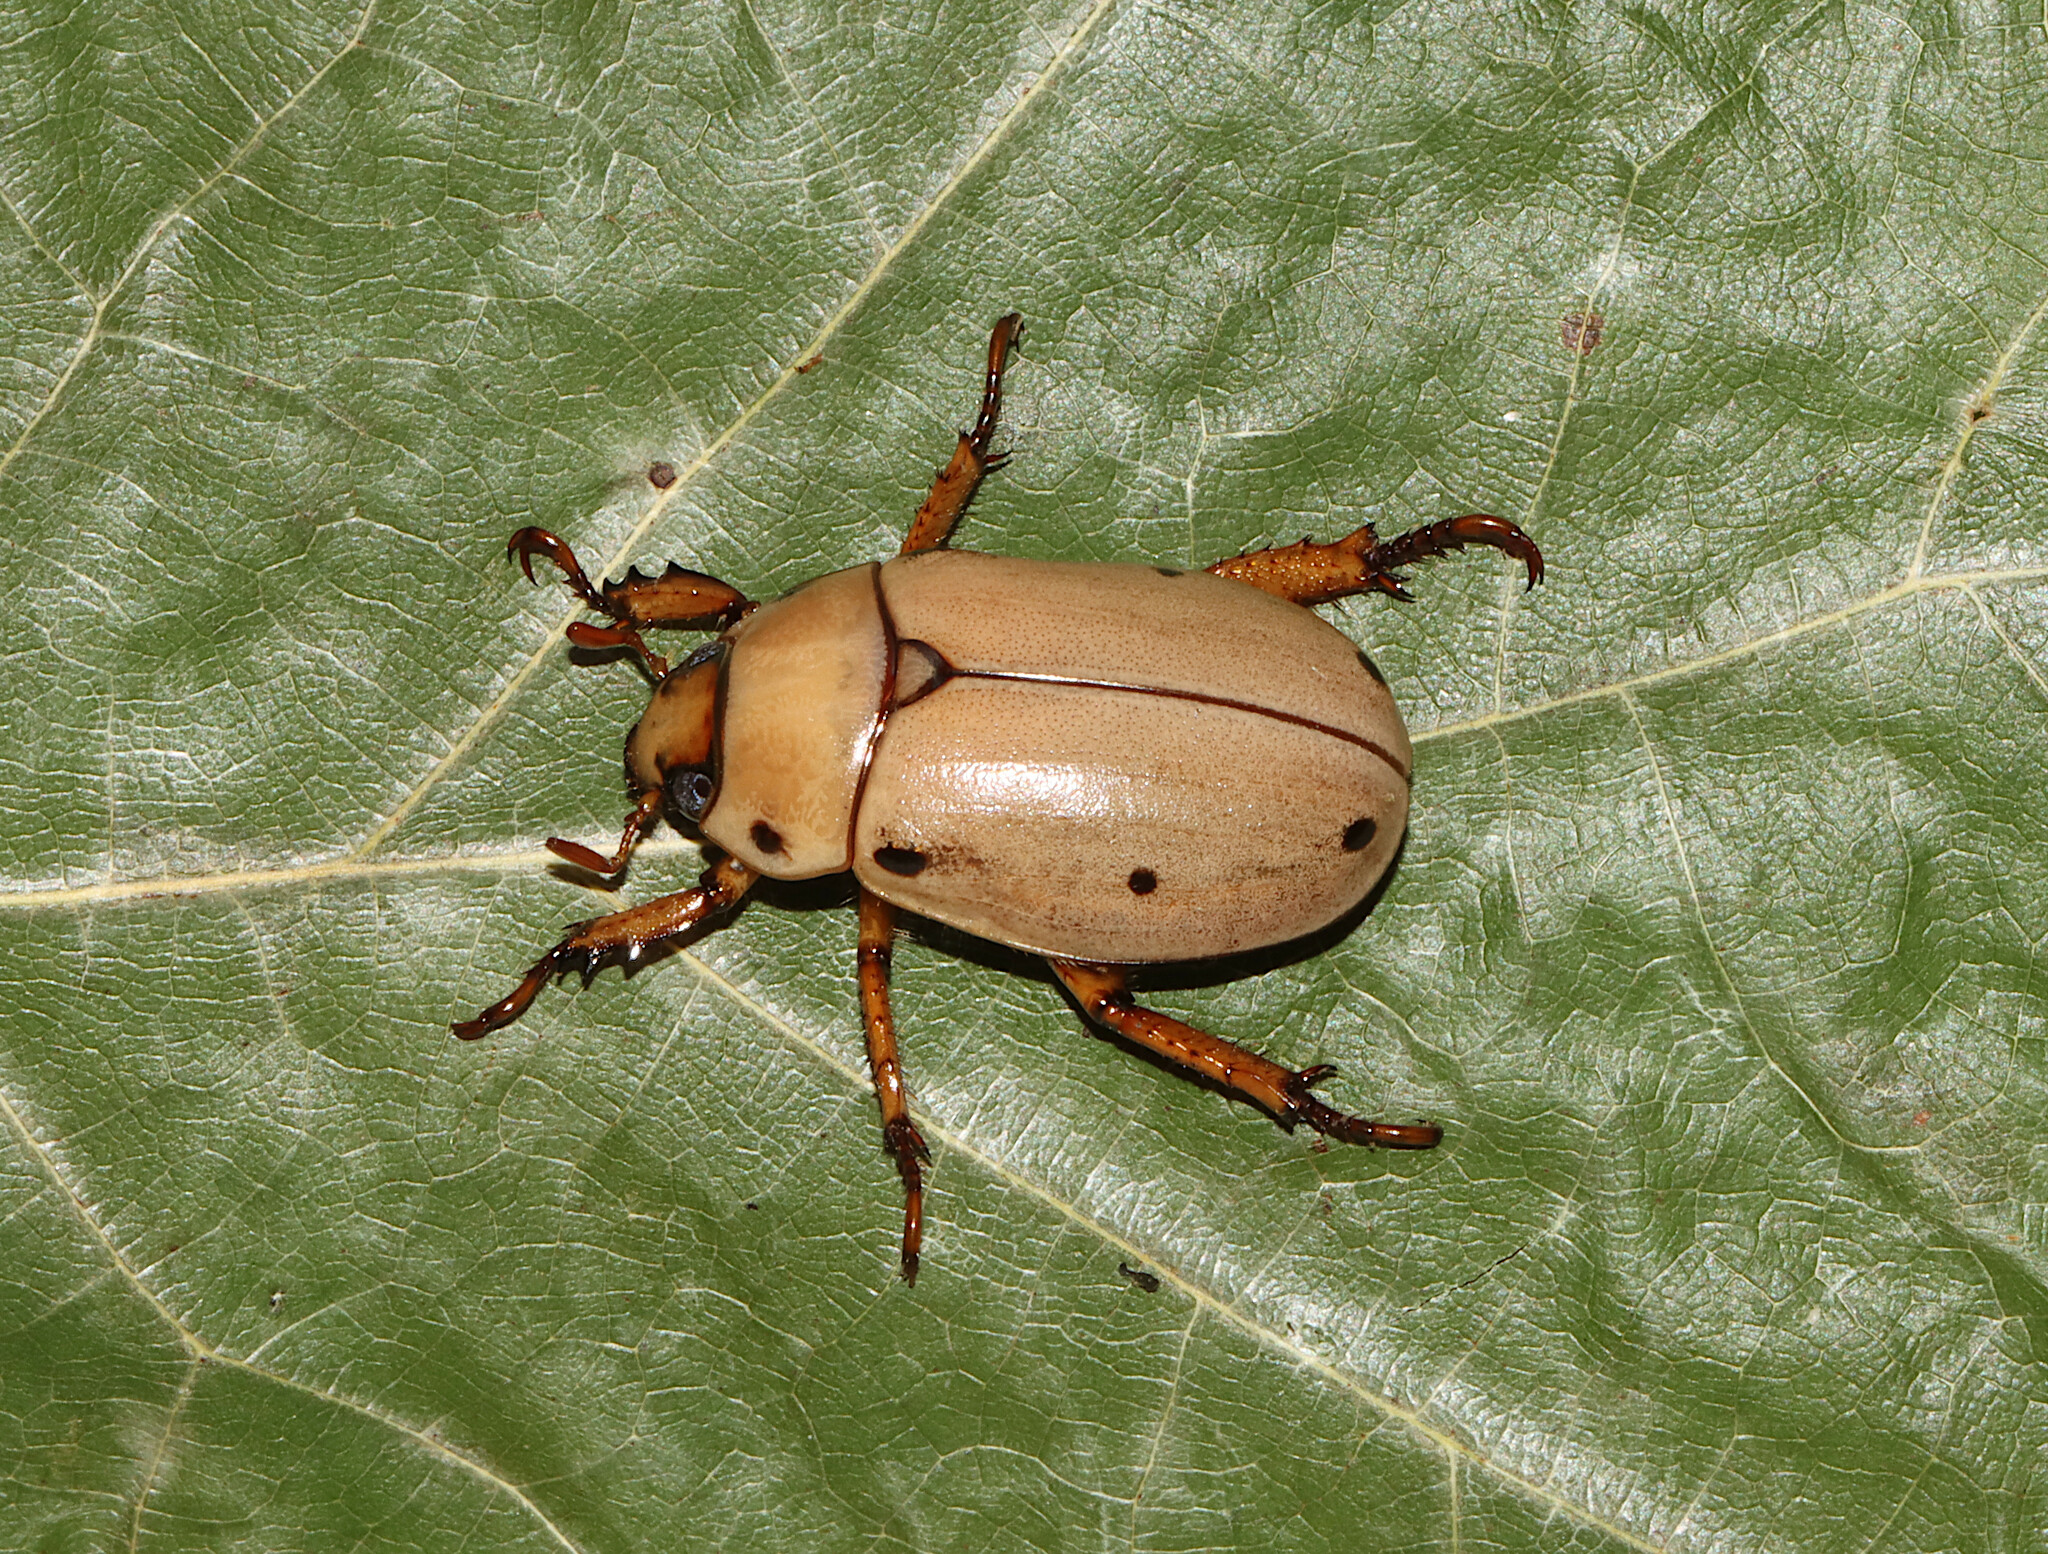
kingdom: Animalia
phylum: Arthropoda
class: Insecta
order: Coleoptera
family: Scarabaeidae
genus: Pelidnota
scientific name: Pelidnota punctata
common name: Grapevine beetle
